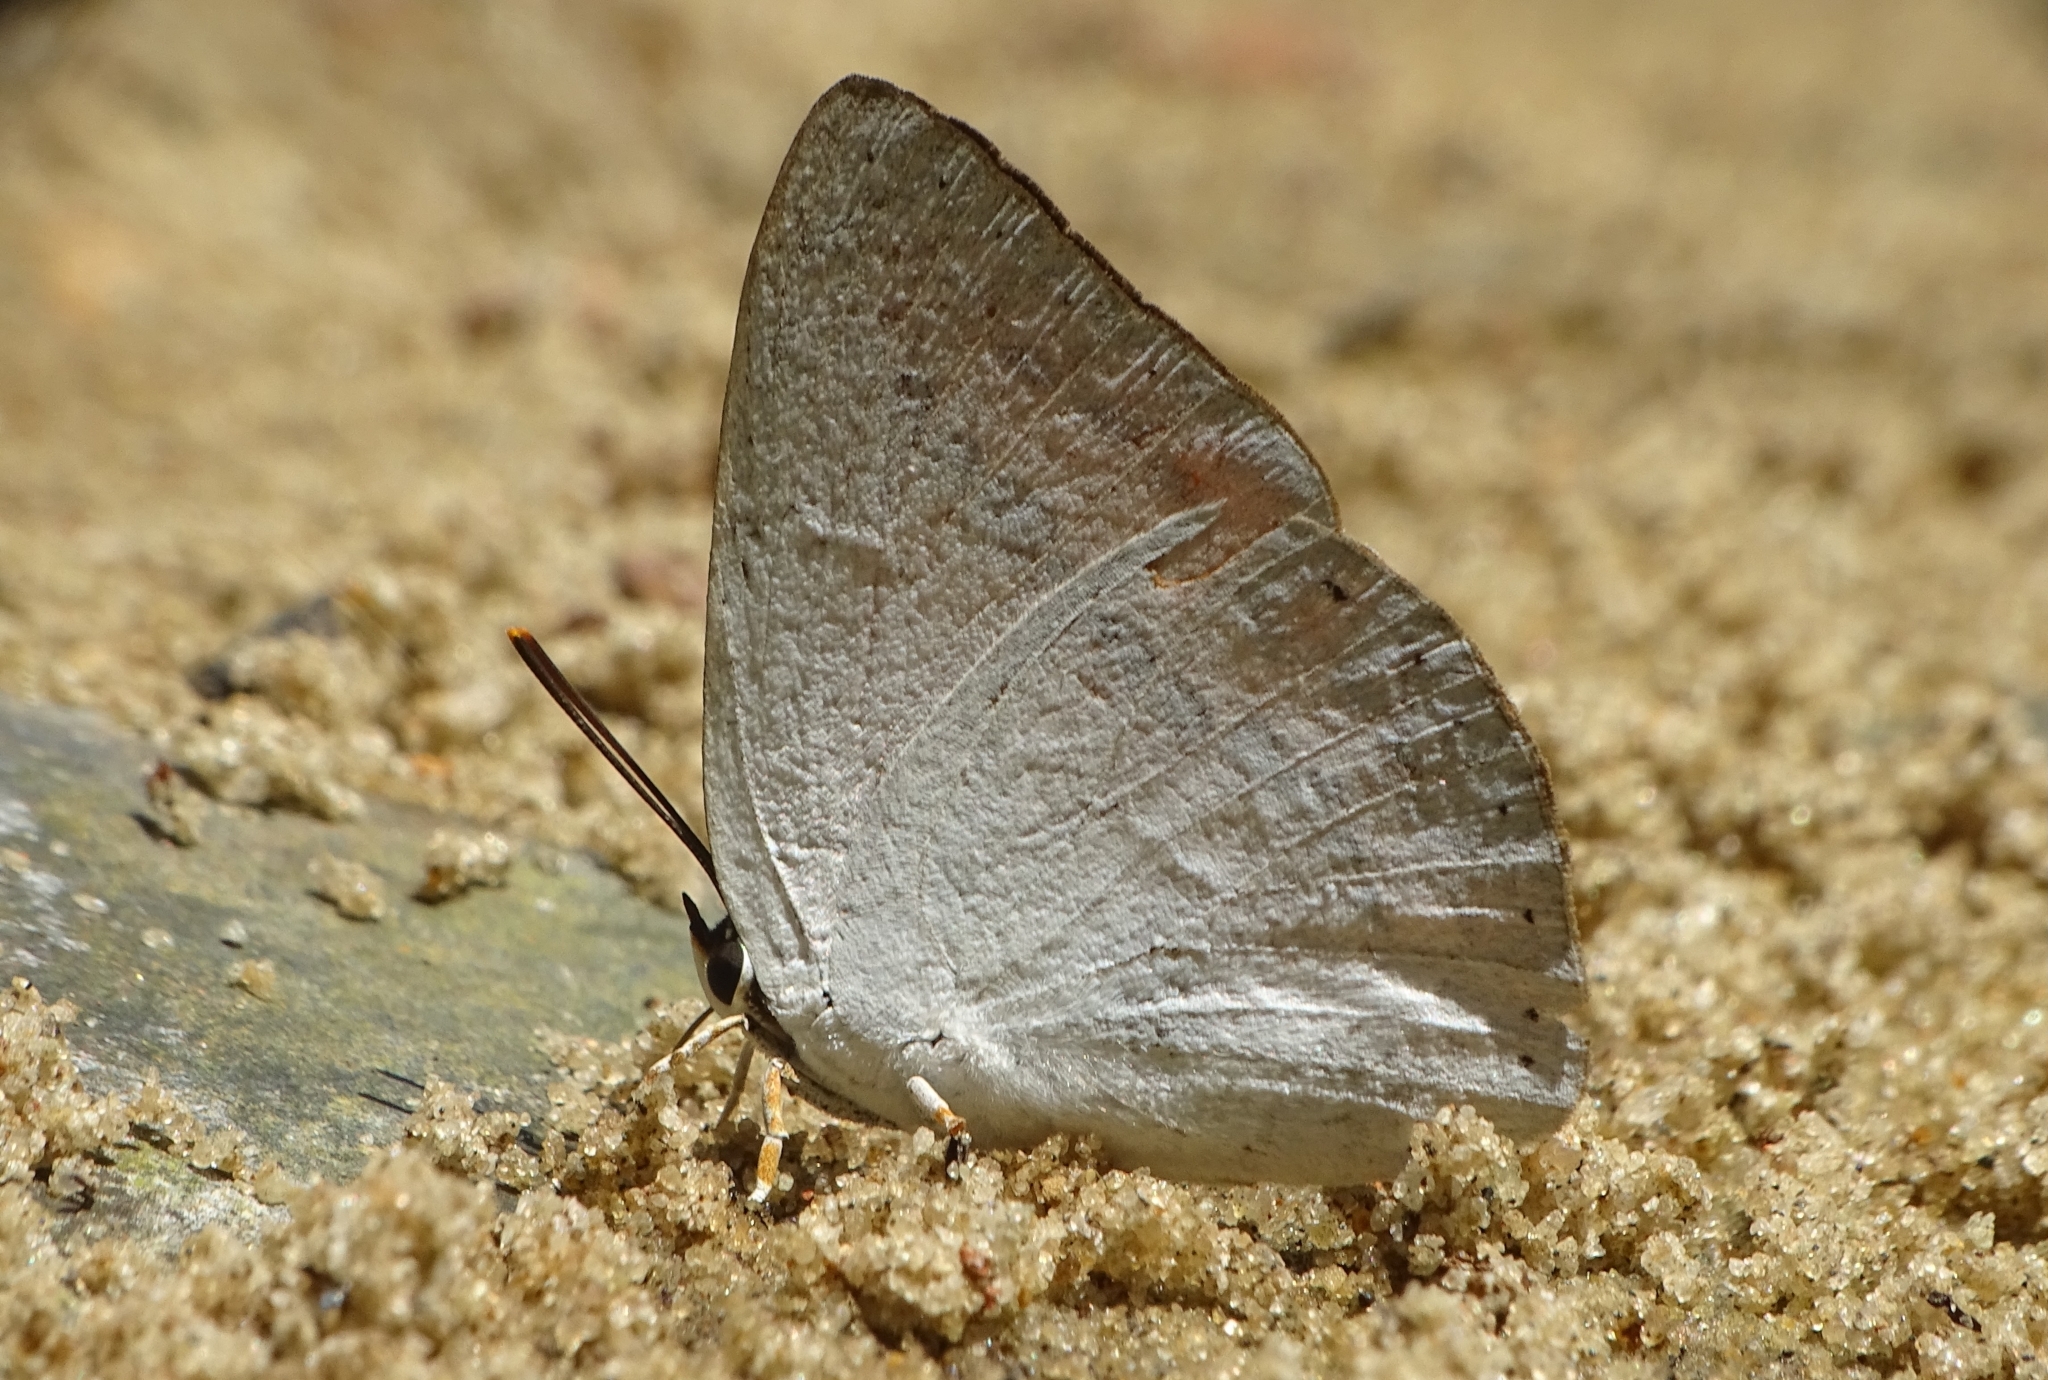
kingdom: Animalia
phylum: Arthropoda
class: Insecta
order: Lepidoptera
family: Lycaenidae
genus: Curetis
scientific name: Curetis thetis
